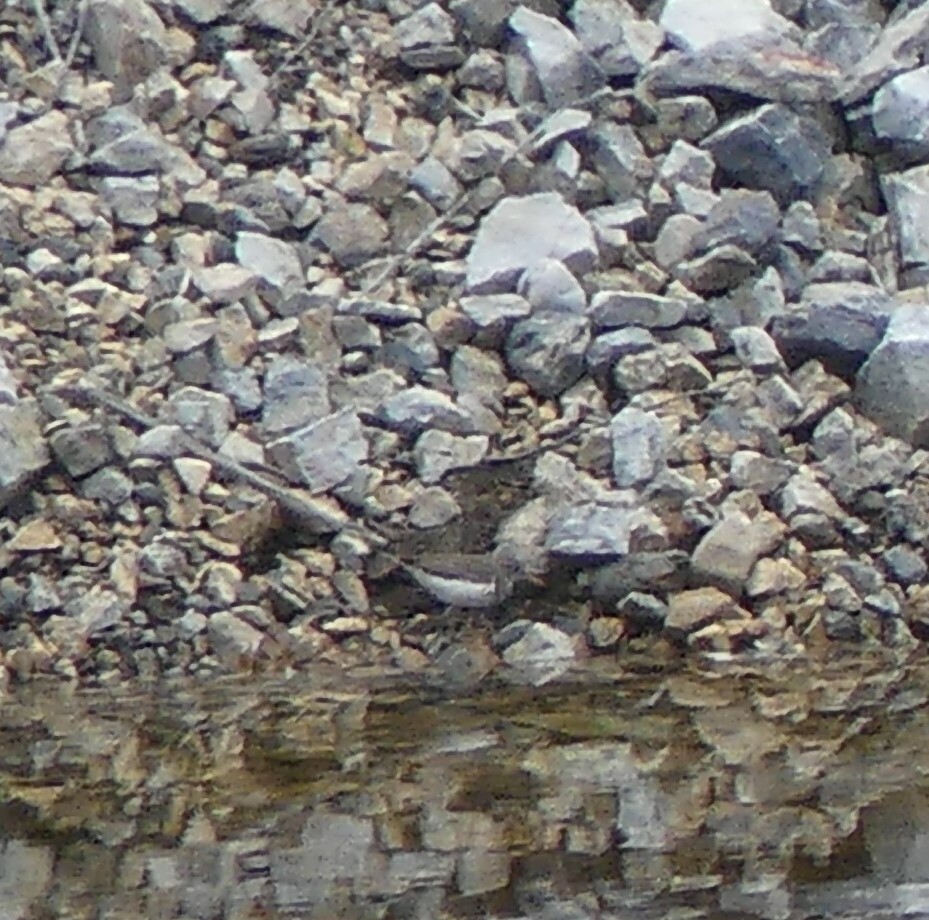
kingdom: Animalia
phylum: Chordata
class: Aves
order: Charadriiformes
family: Scolopacidae
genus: Actitis
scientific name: Actitis macularius
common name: Spotted sandpiper
